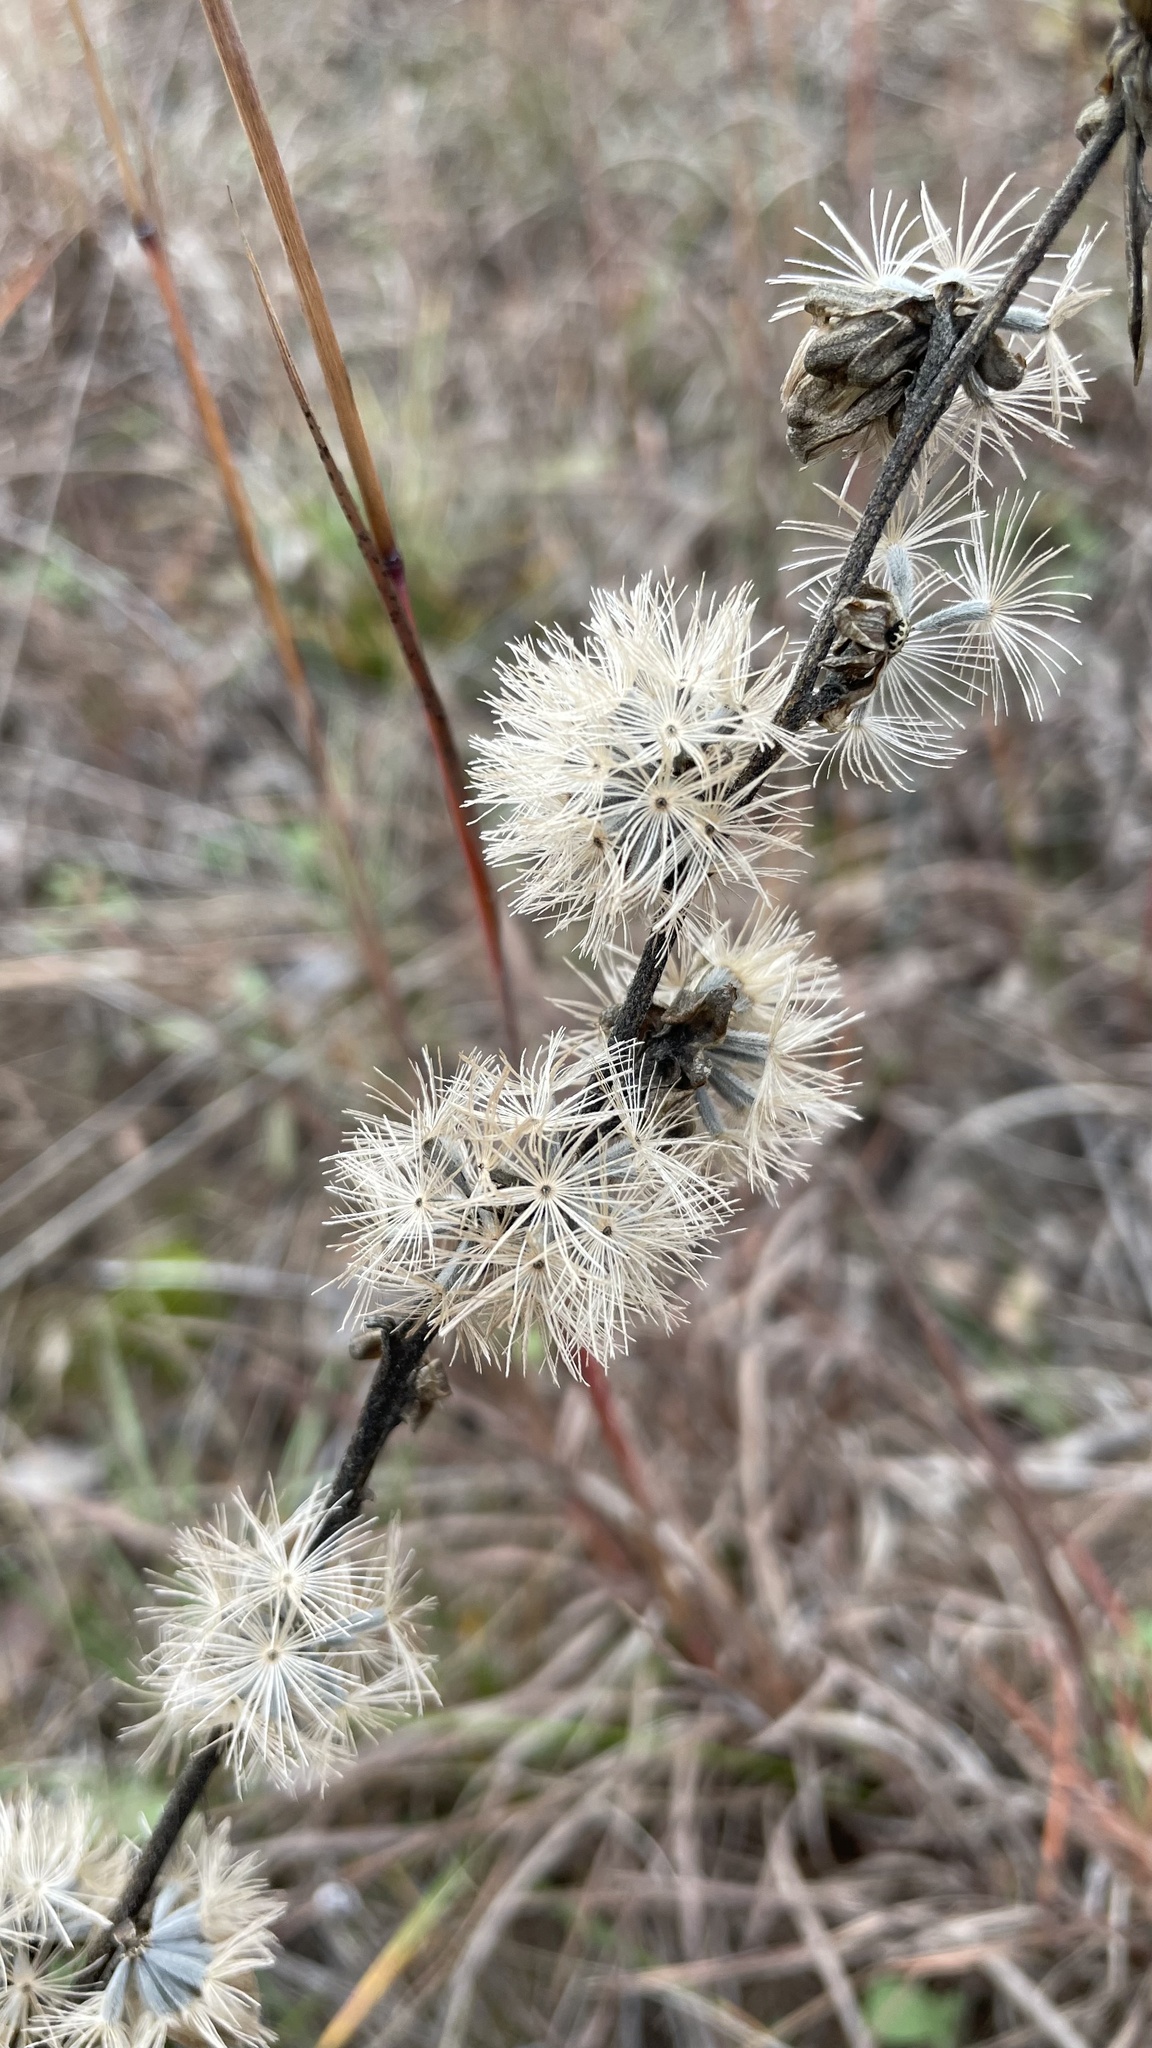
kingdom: Plantae
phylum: Tracheophyta
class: Magnoliopsida
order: Asterales
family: Asteraceae
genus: Liatris
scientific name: Liatris aspera
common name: Lacerate blazing-star
